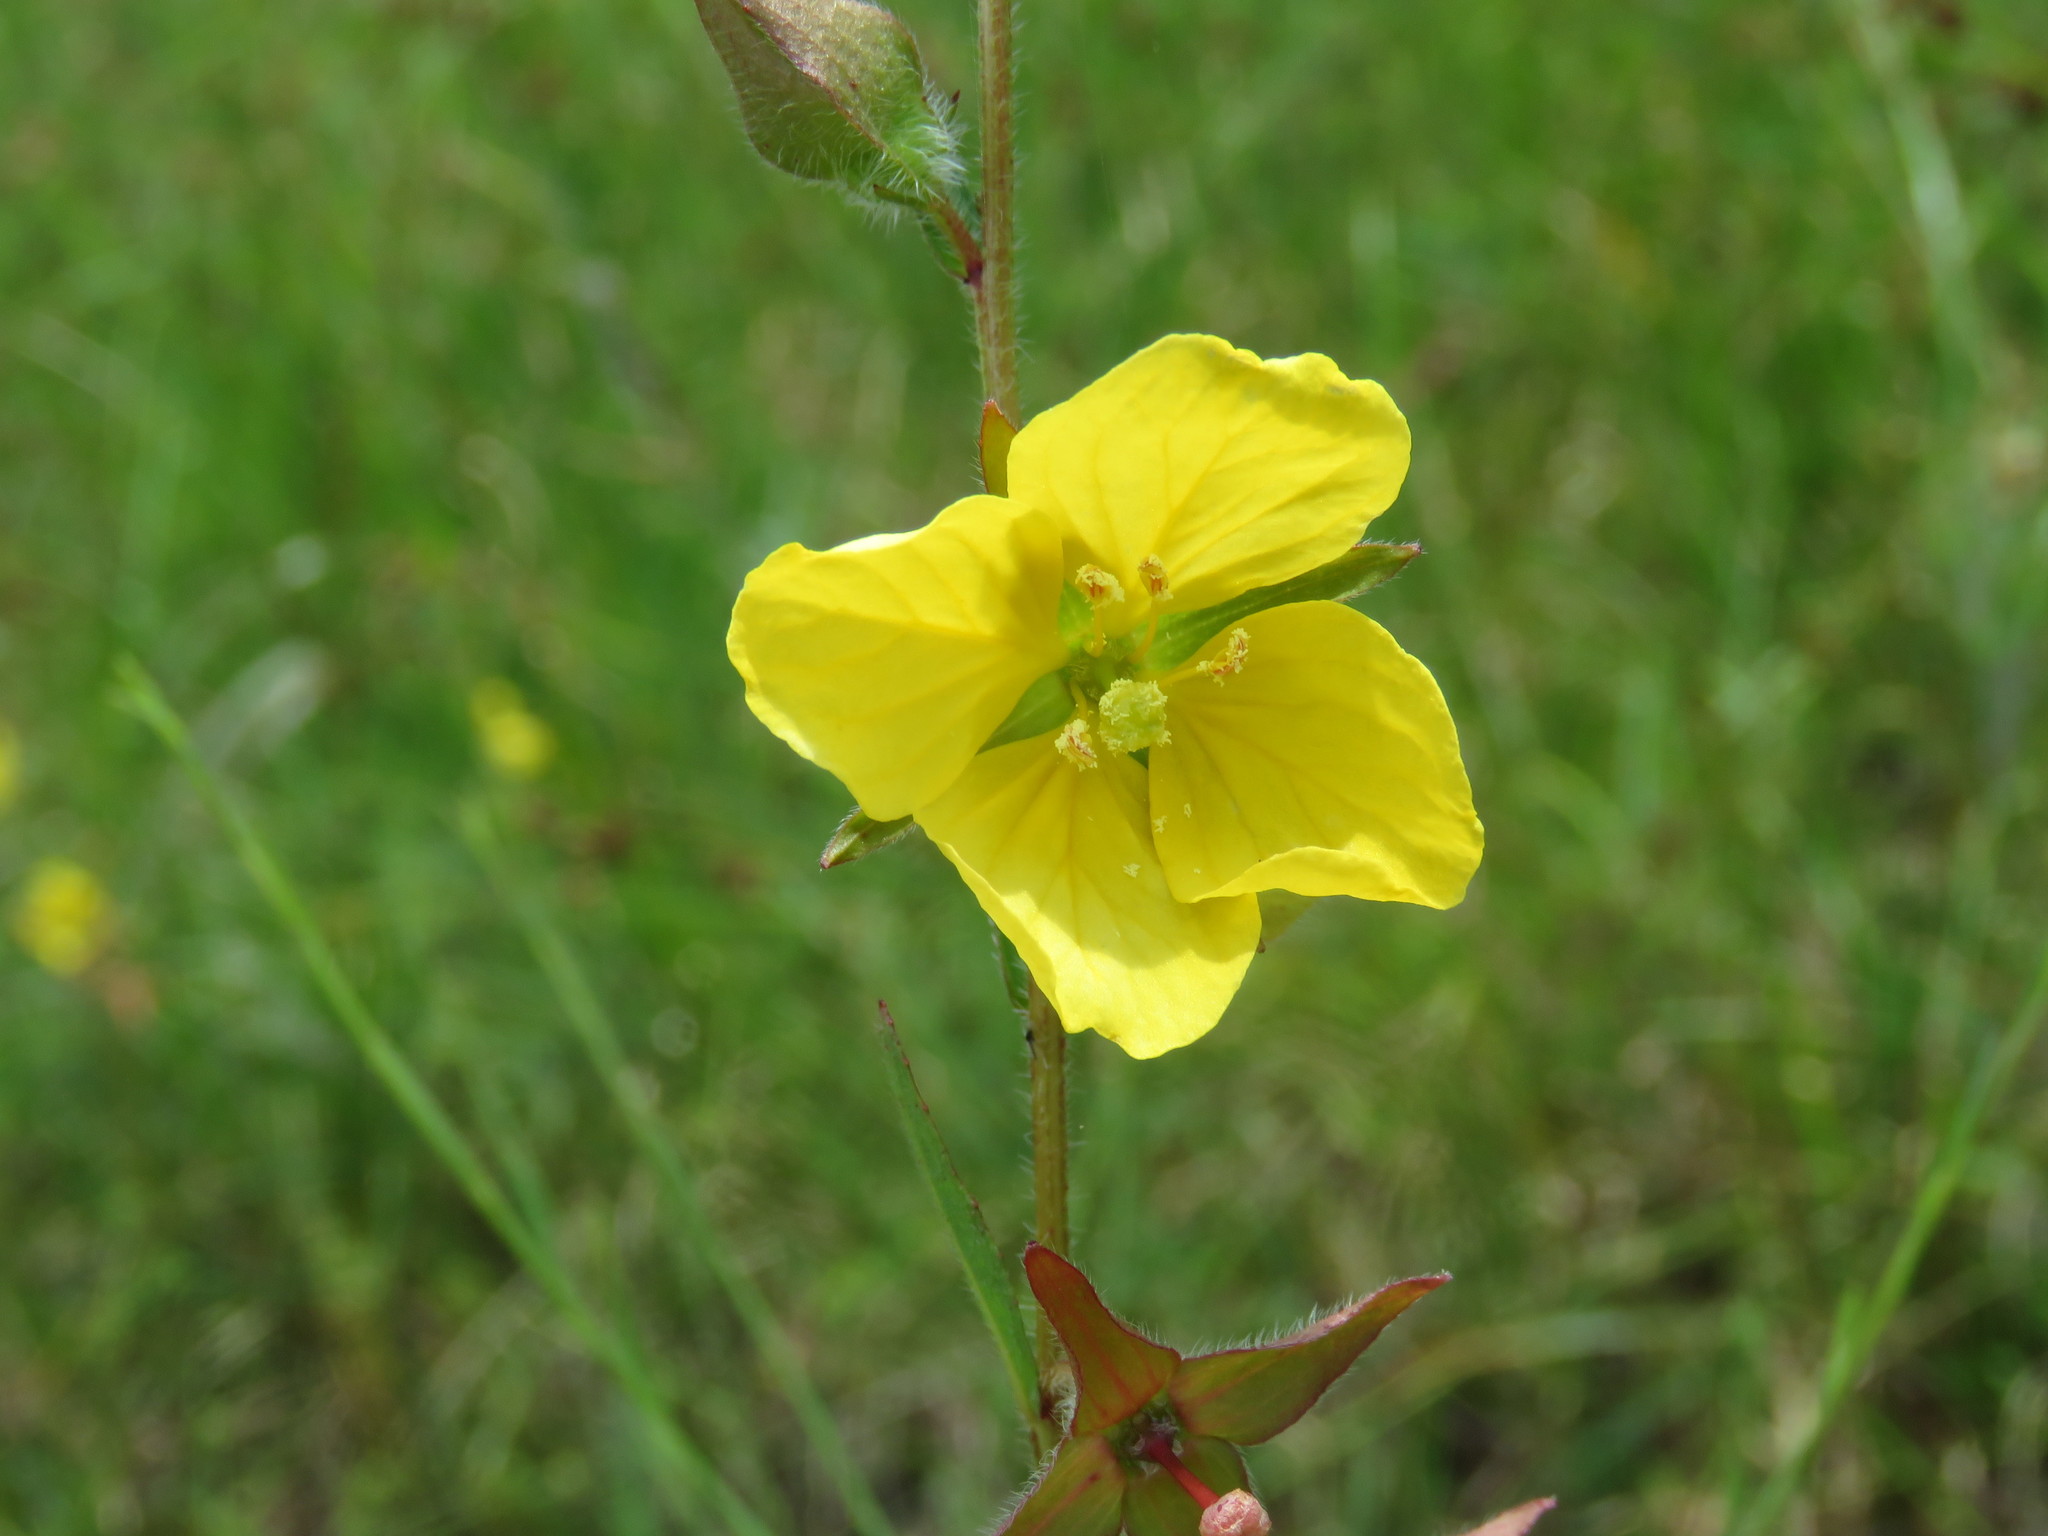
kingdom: Plantae
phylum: Tracheophyta
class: Magnoliopsida
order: Myrtales
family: Onagraceae
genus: Ludwigia
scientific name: Ludwigia hirtella
